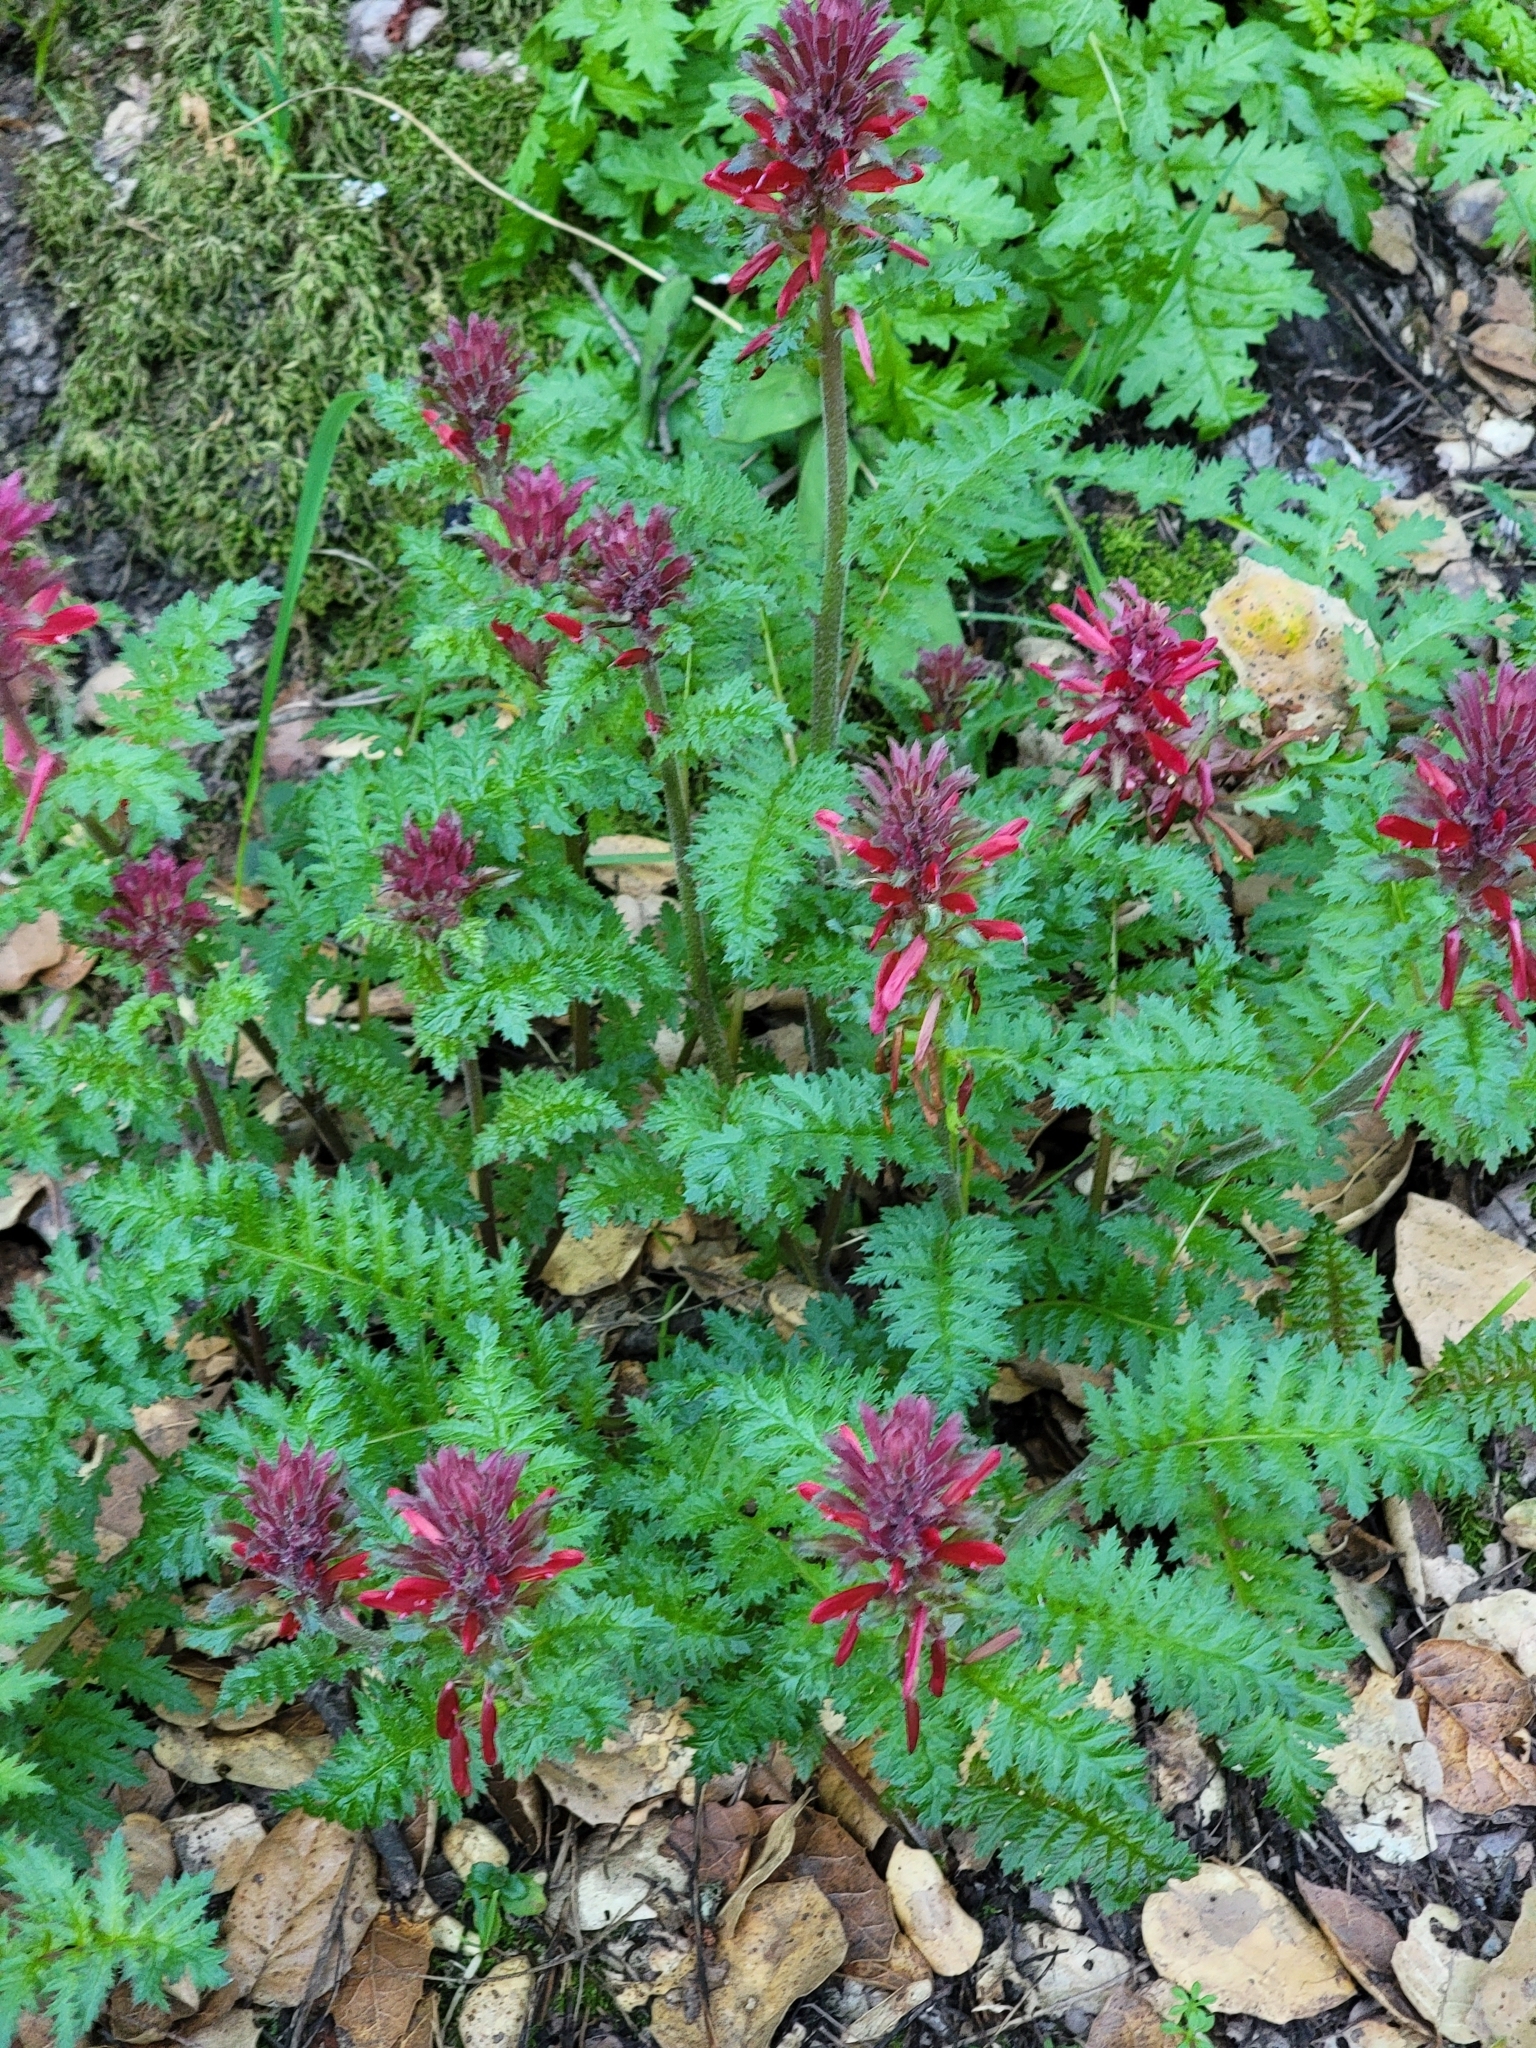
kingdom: Plantae
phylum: Tracheophyta
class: Magnoliopsida
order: Lamiales
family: Orobanchaceae
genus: Pedicularis
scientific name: Pedicularis densiflora
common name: Indian warrior
